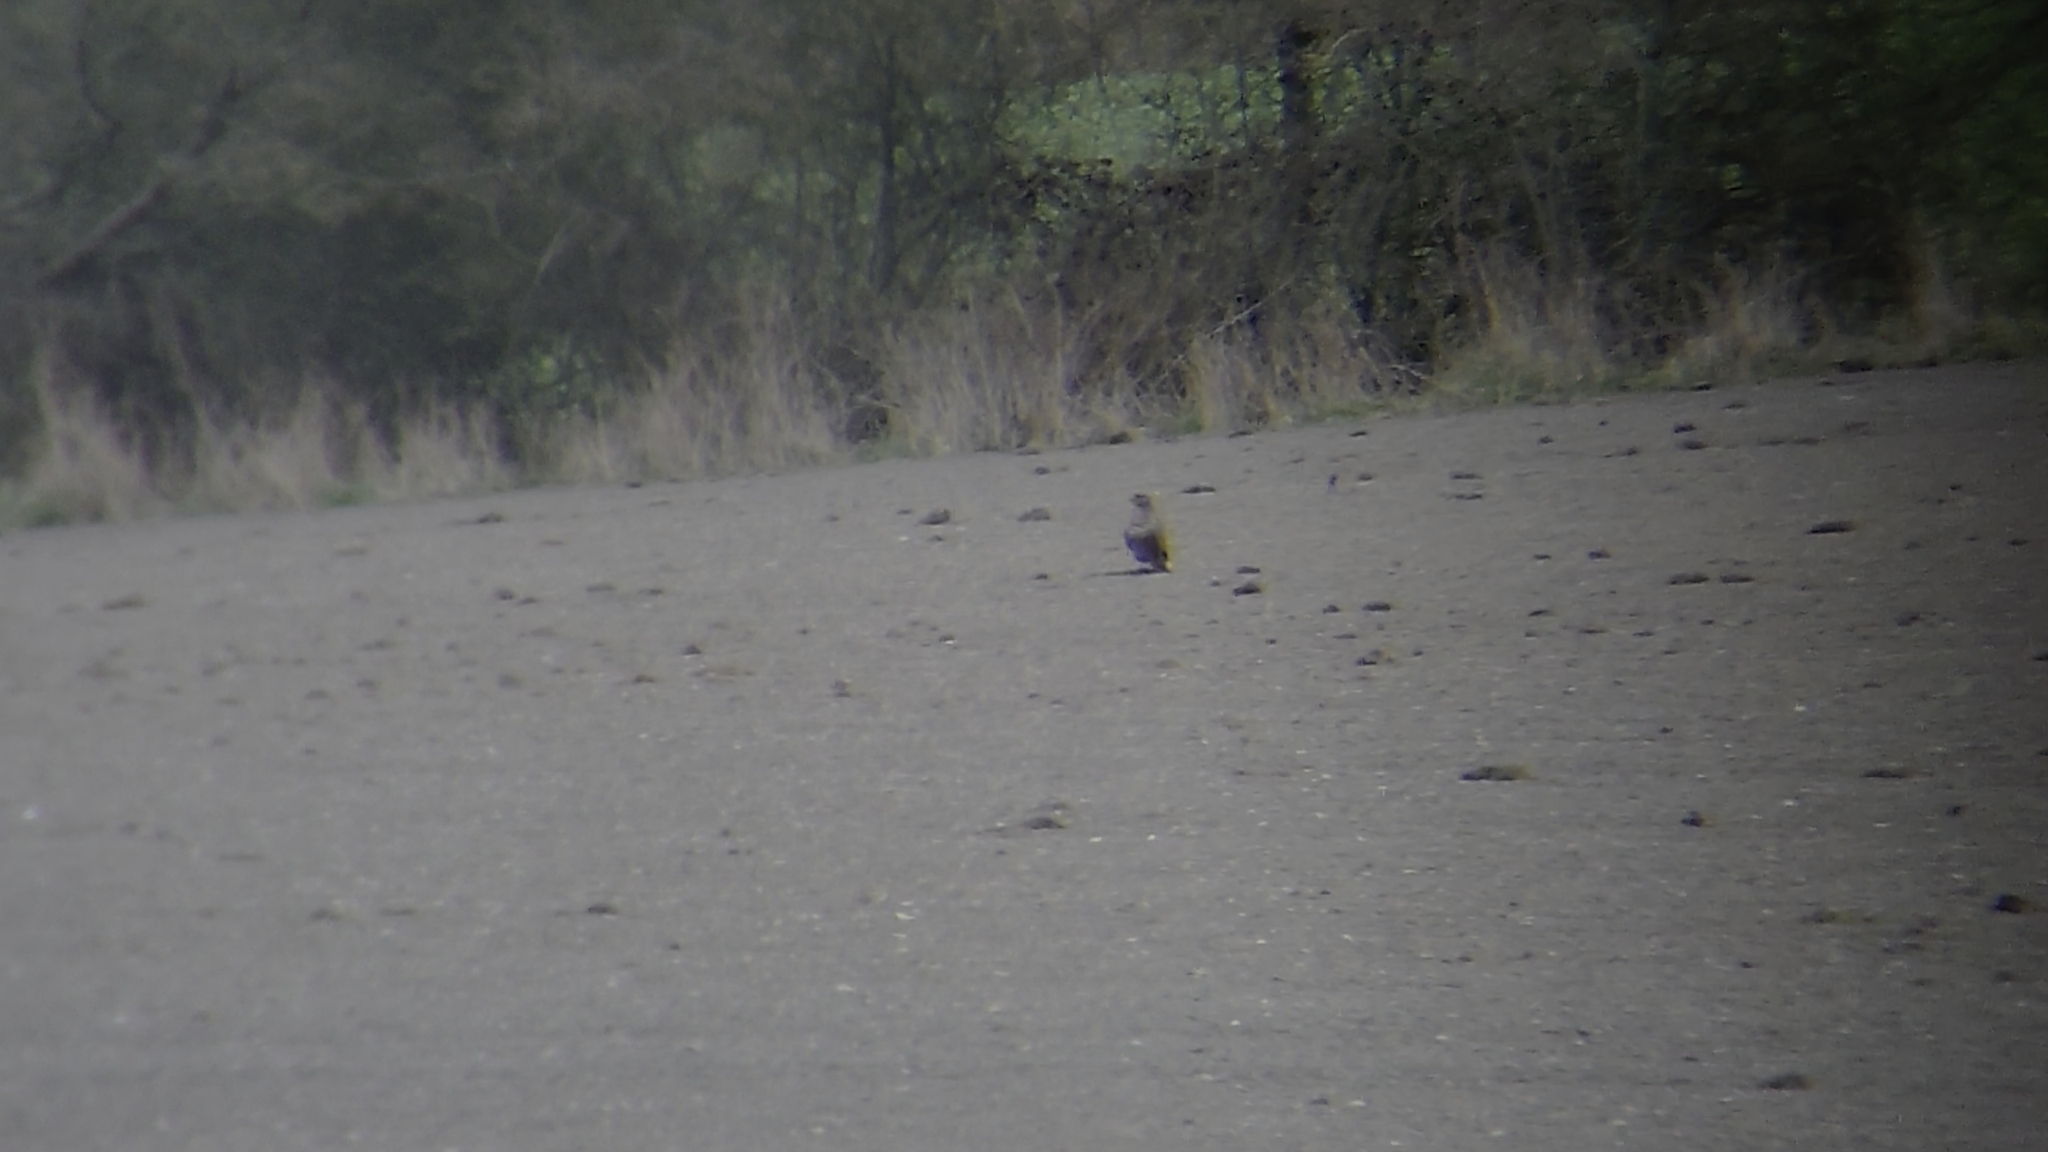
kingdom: Animalia
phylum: Chordata
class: Aves
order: Accipitriformes
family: Accipitridae
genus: Buteo
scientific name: Buteo buteo
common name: Common buzzard
